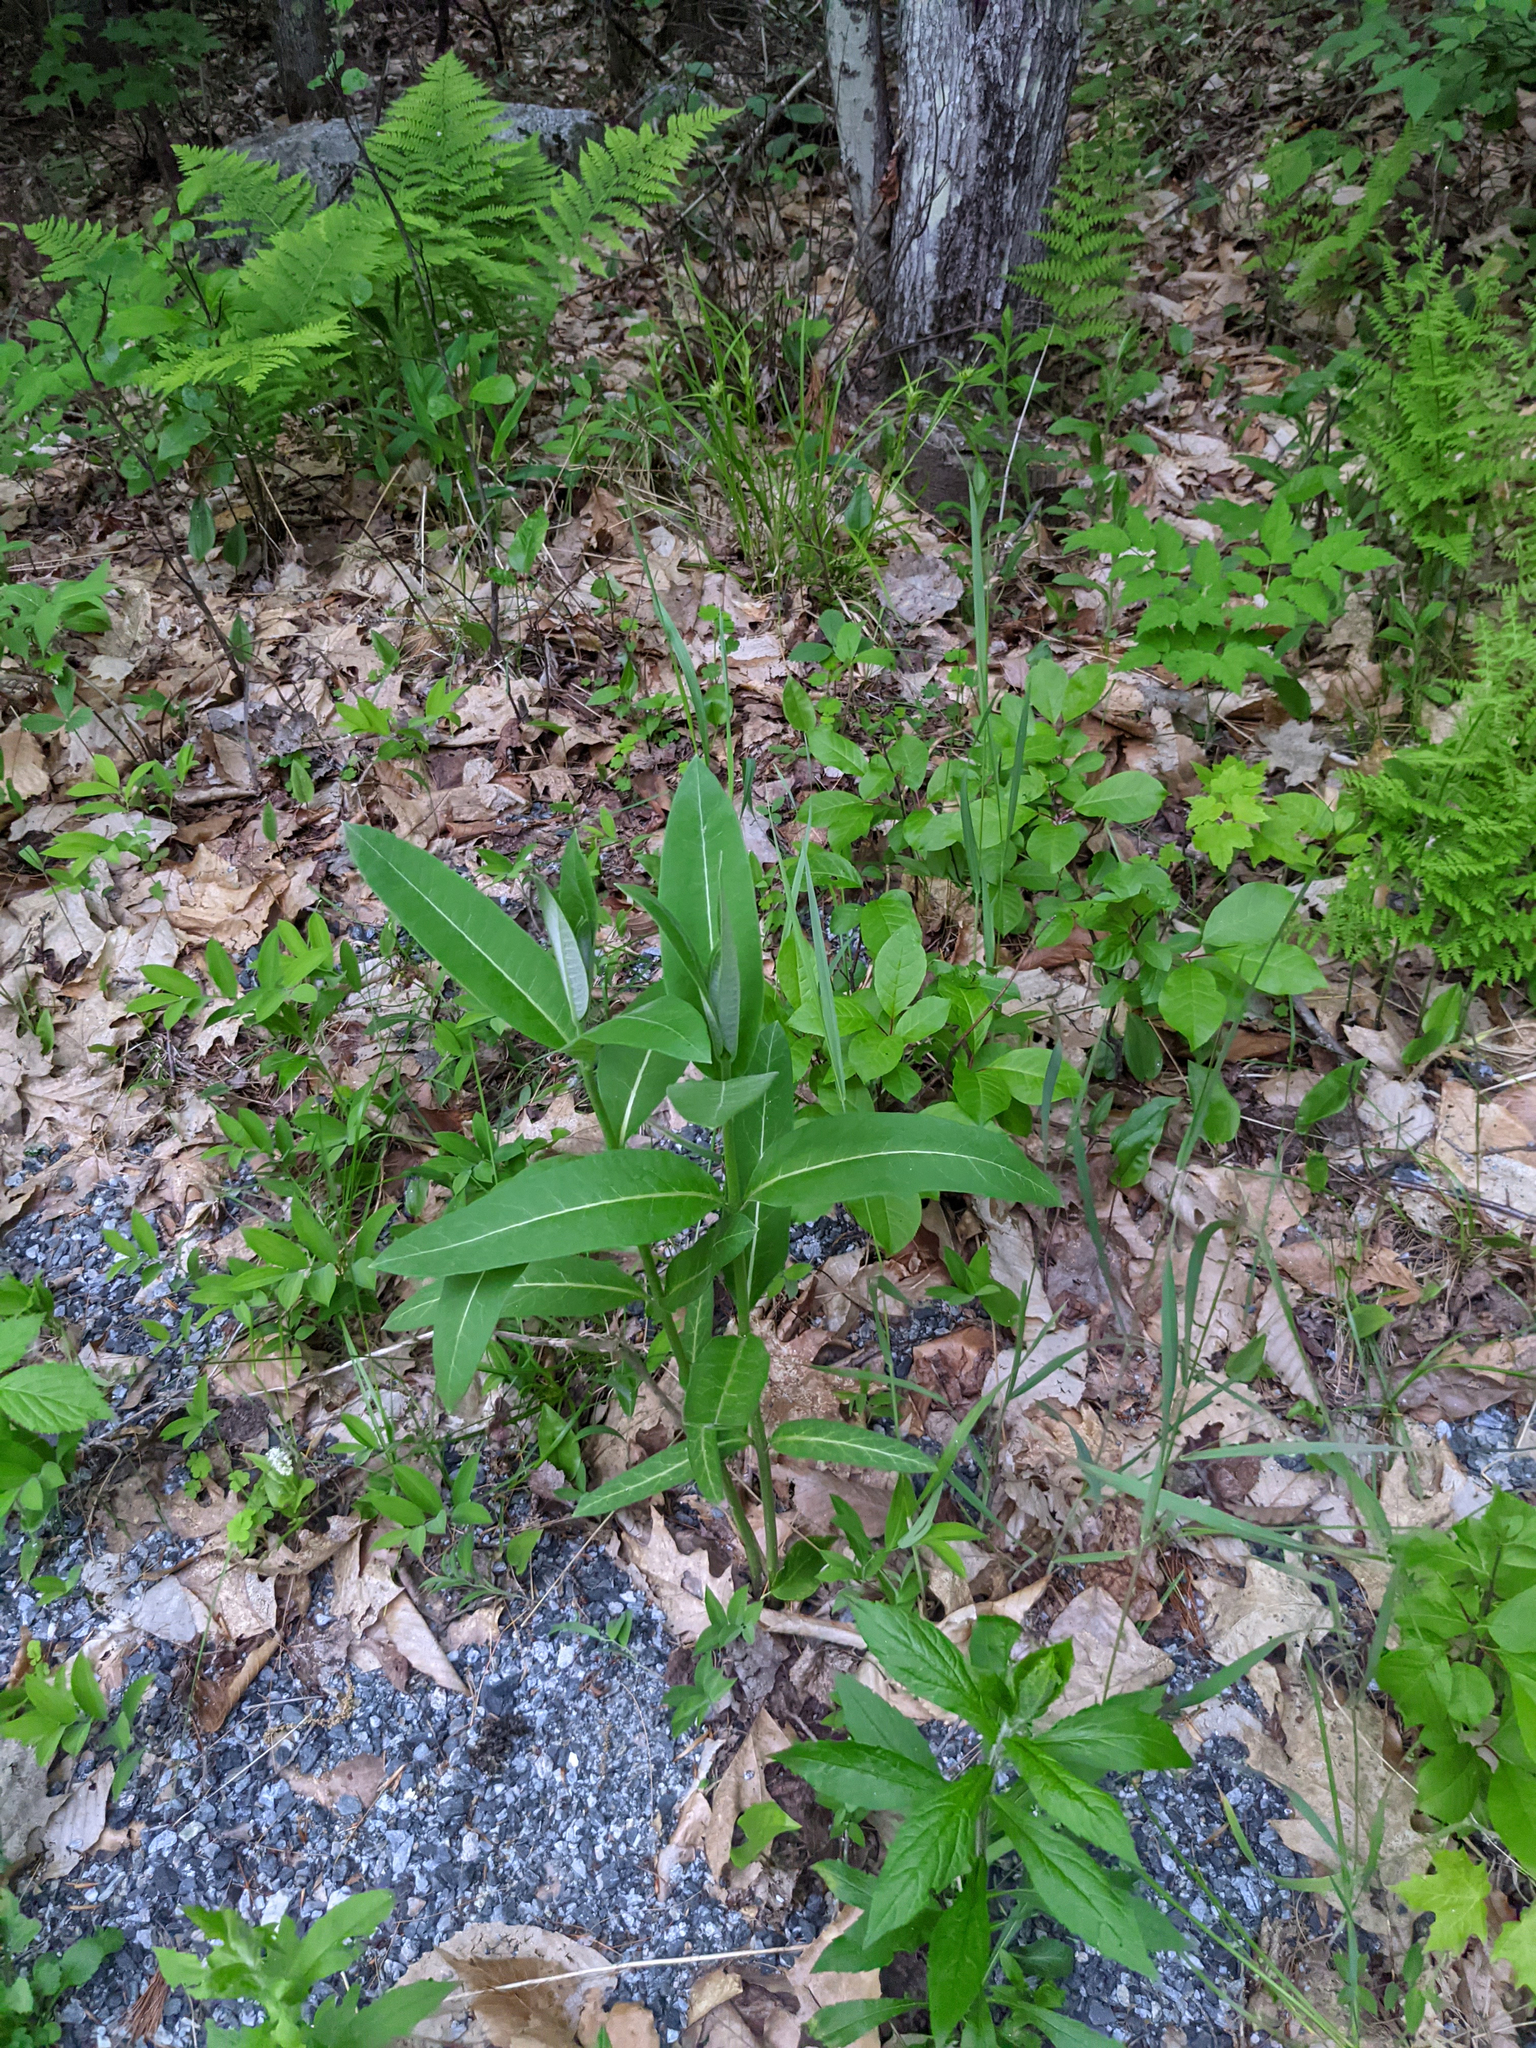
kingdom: Plantae
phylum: Tracheophyta
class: Magnoliopsida
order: Gentianales
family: Apocynaceae
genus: Asclepias
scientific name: Asclepias syriaca
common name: Common milkweed
